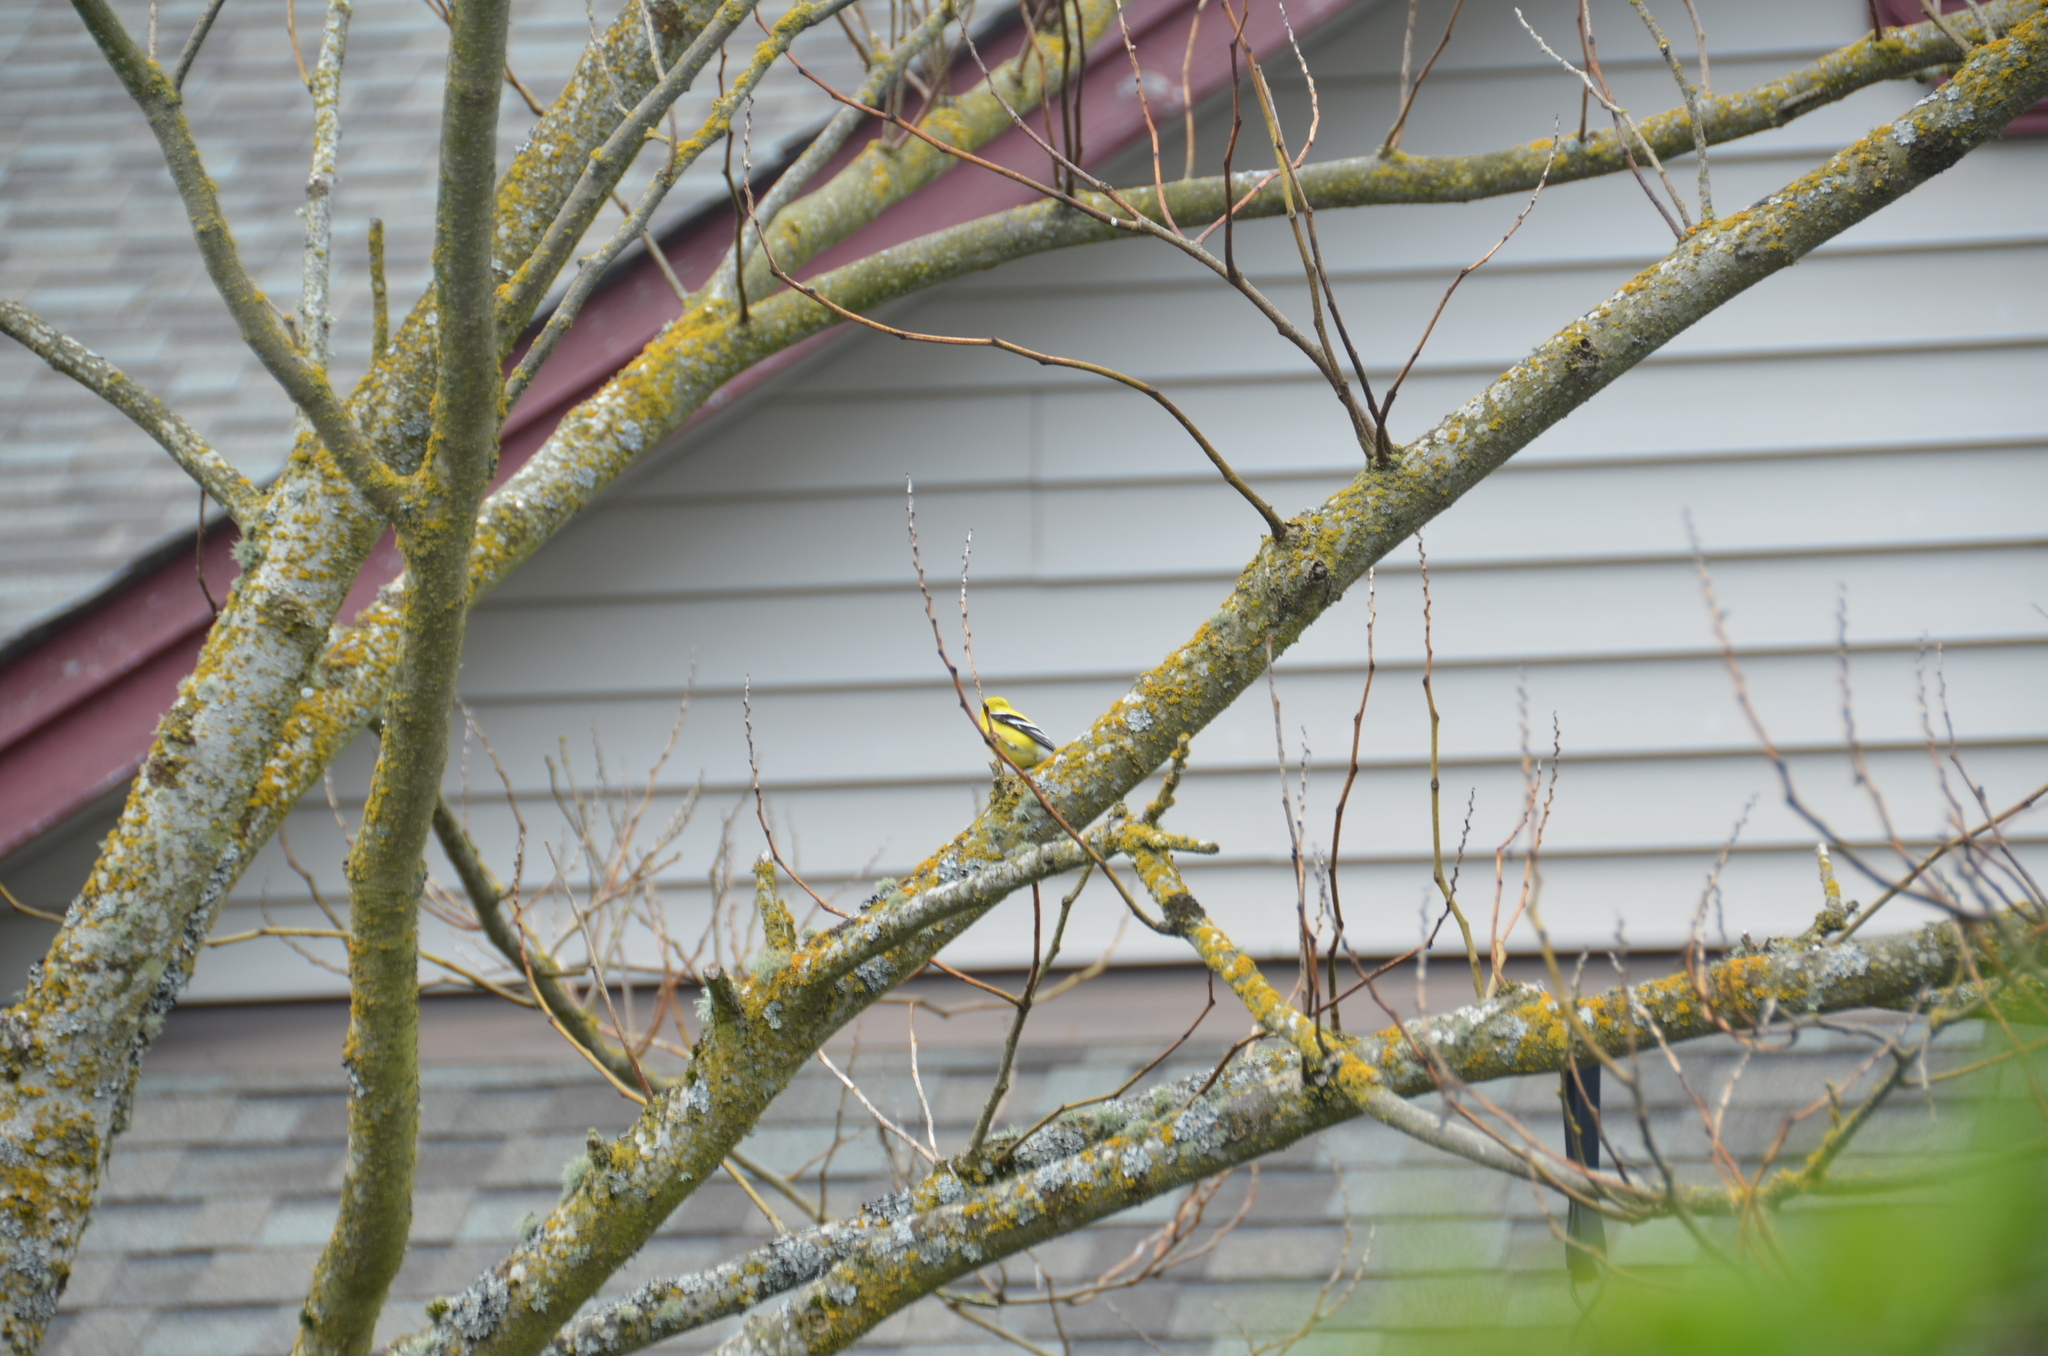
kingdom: Animalia
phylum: Chordata
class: Aves
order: Passeriformes
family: Fringillidae
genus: Spinus
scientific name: Spinus tristis
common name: American goldfinch
